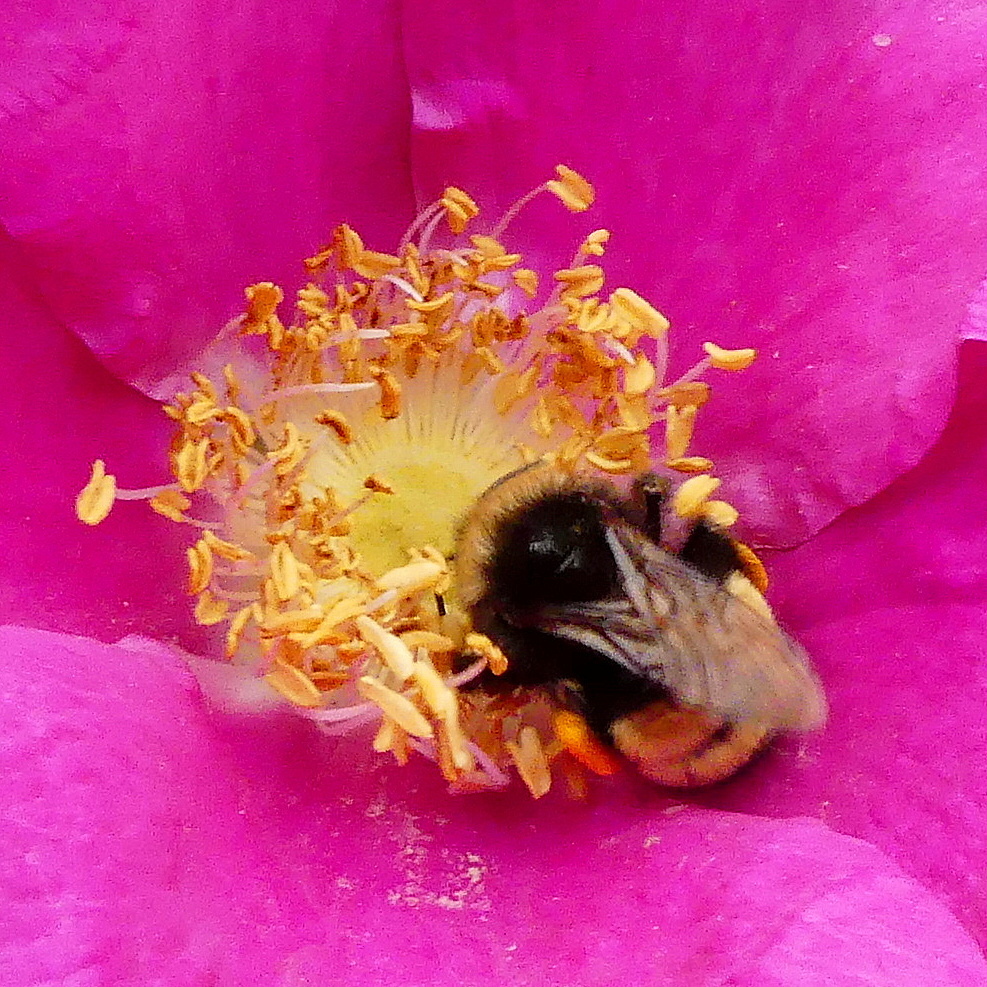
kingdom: Animalia
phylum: Arthropoda
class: Insecta
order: Hymenoptera
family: Apidae
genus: Bombus
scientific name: Bombus terricola
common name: Yellow-banded bumble bee
